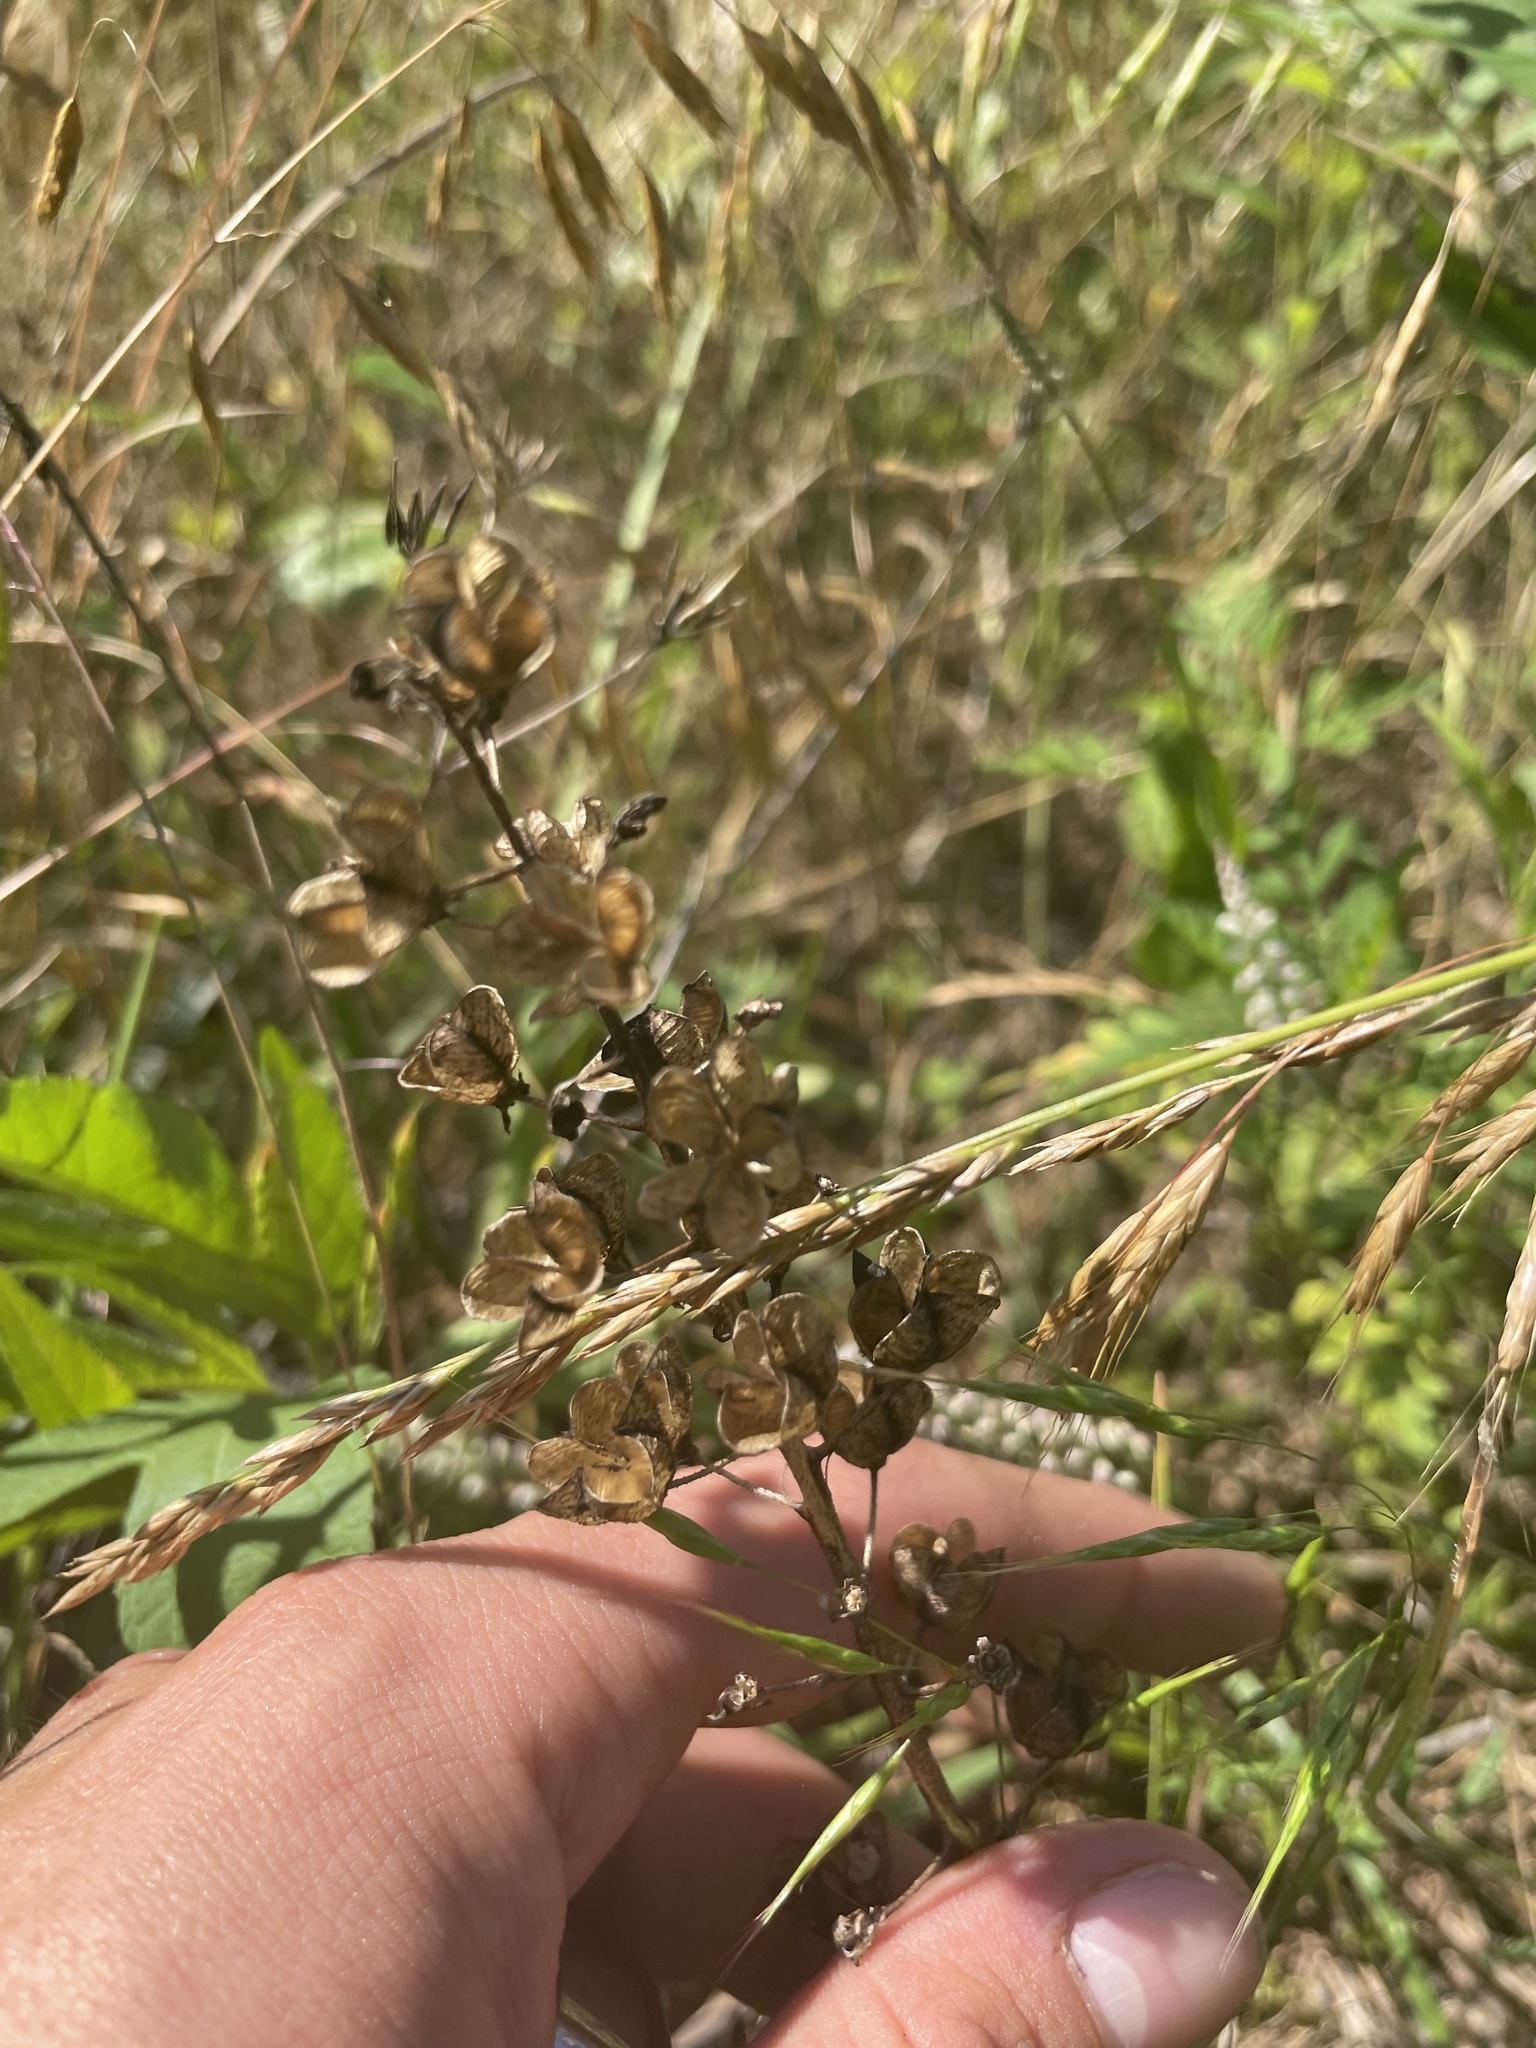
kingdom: Plantae
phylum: Tracheophyta
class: Liliopsida
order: Asparagales
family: Asparagaceae
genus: Camassia
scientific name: Camassia scilloides
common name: Wild hyacinth
